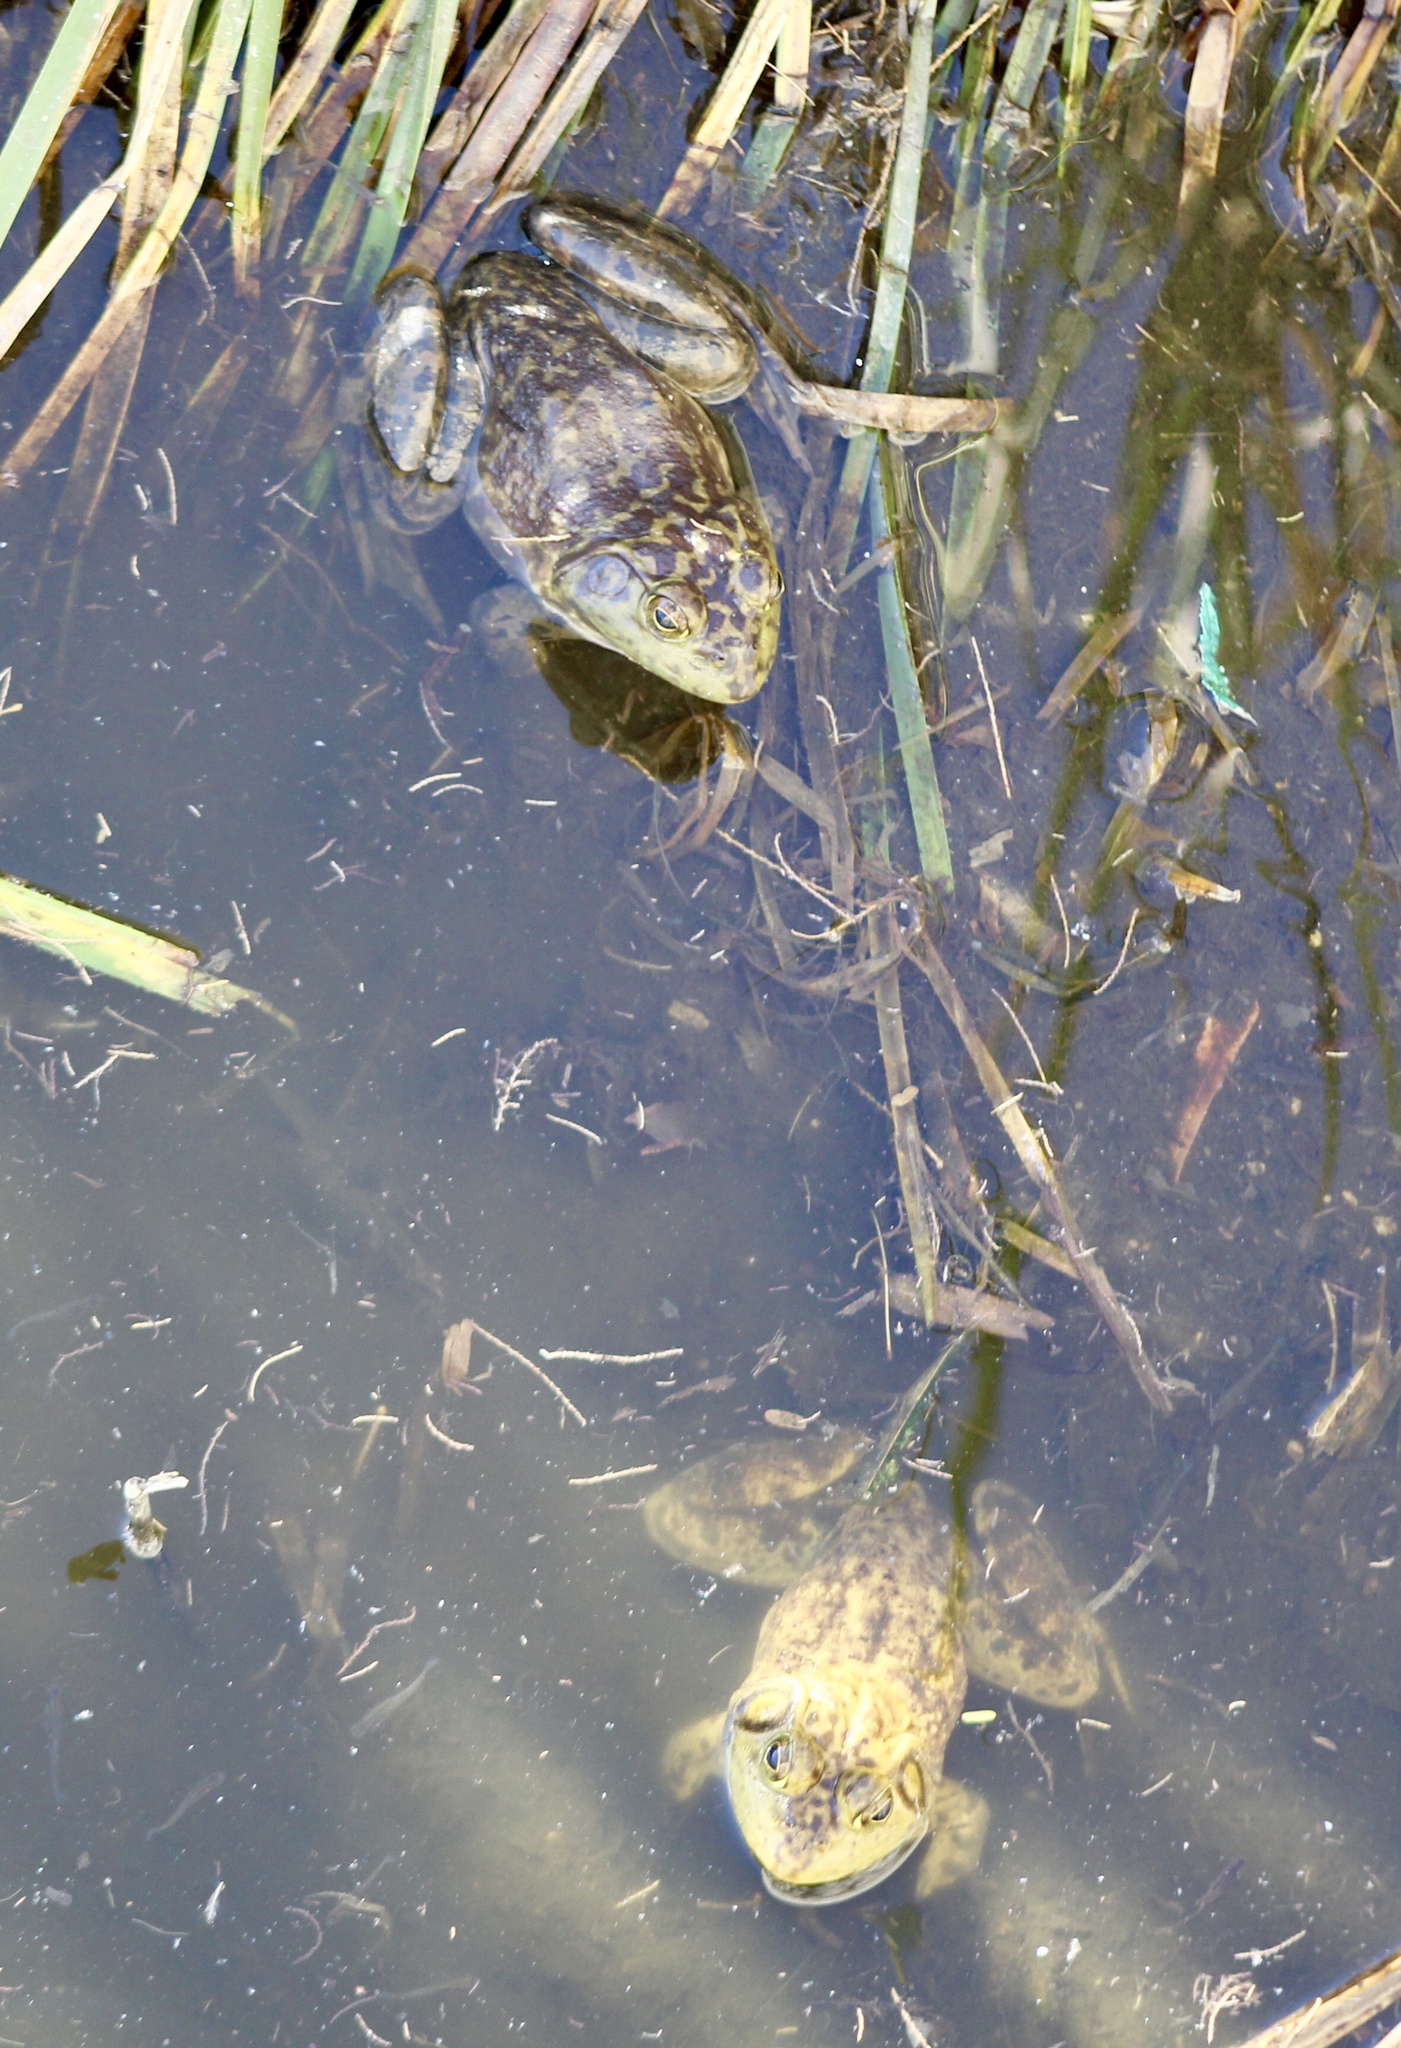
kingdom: Animalia
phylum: Chordata
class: Amphibia
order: Anura
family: Ranidae
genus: Lithobates
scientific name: Lithobates catesbeianus
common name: American bullfrog
